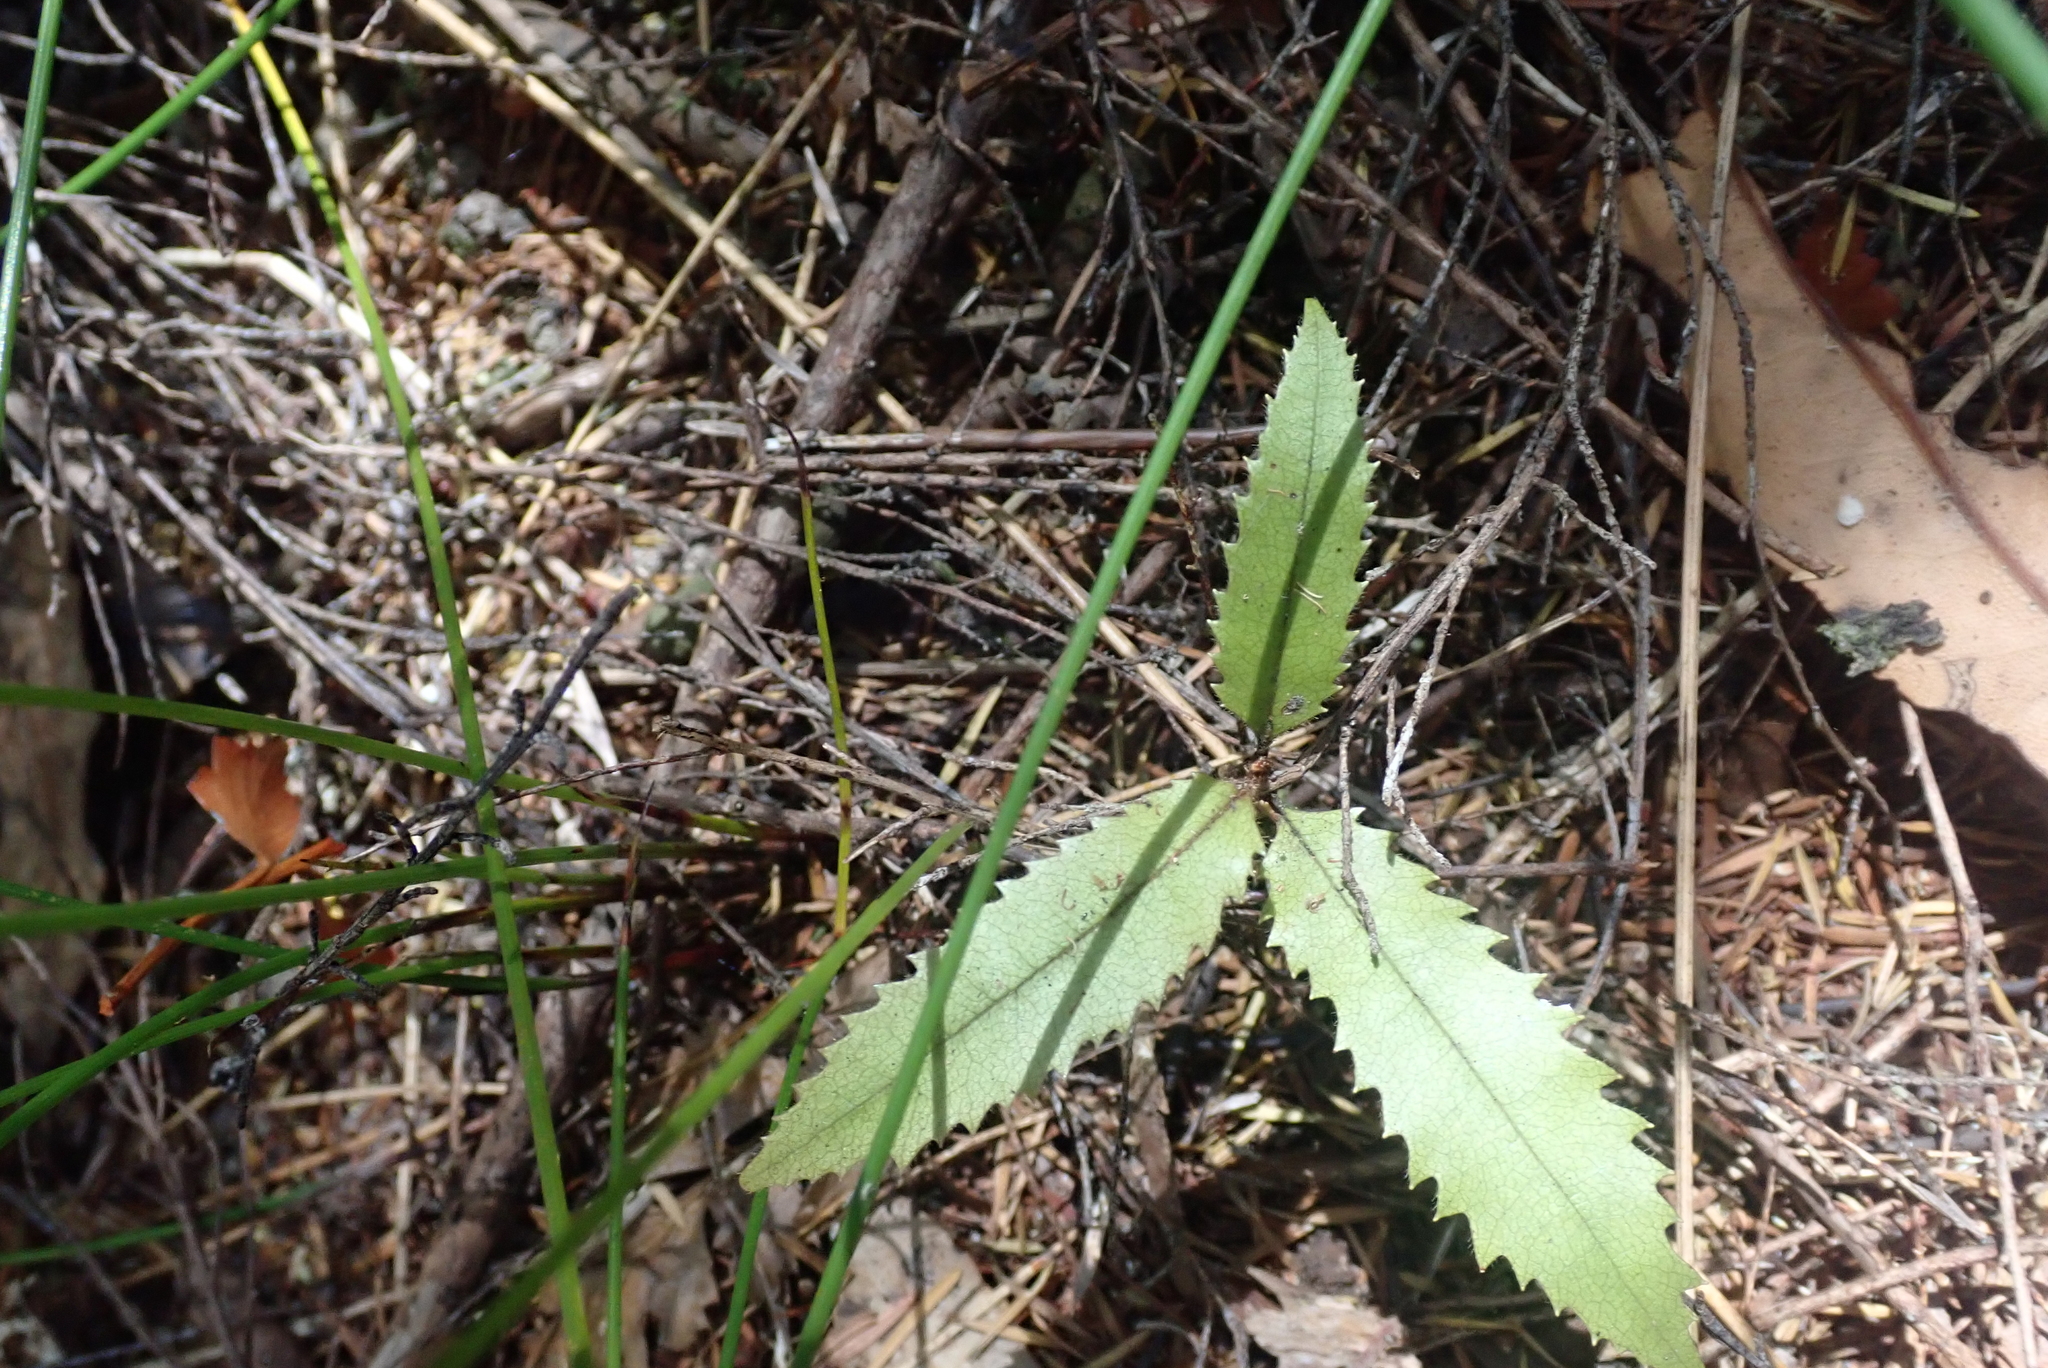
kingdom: Plantae
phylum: Tracheophyta
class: Magnoliopsida
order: Proteales
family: Proteaceae
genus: Knightia
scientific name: Knightia excelsa
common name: New zealand-honeysuckle
